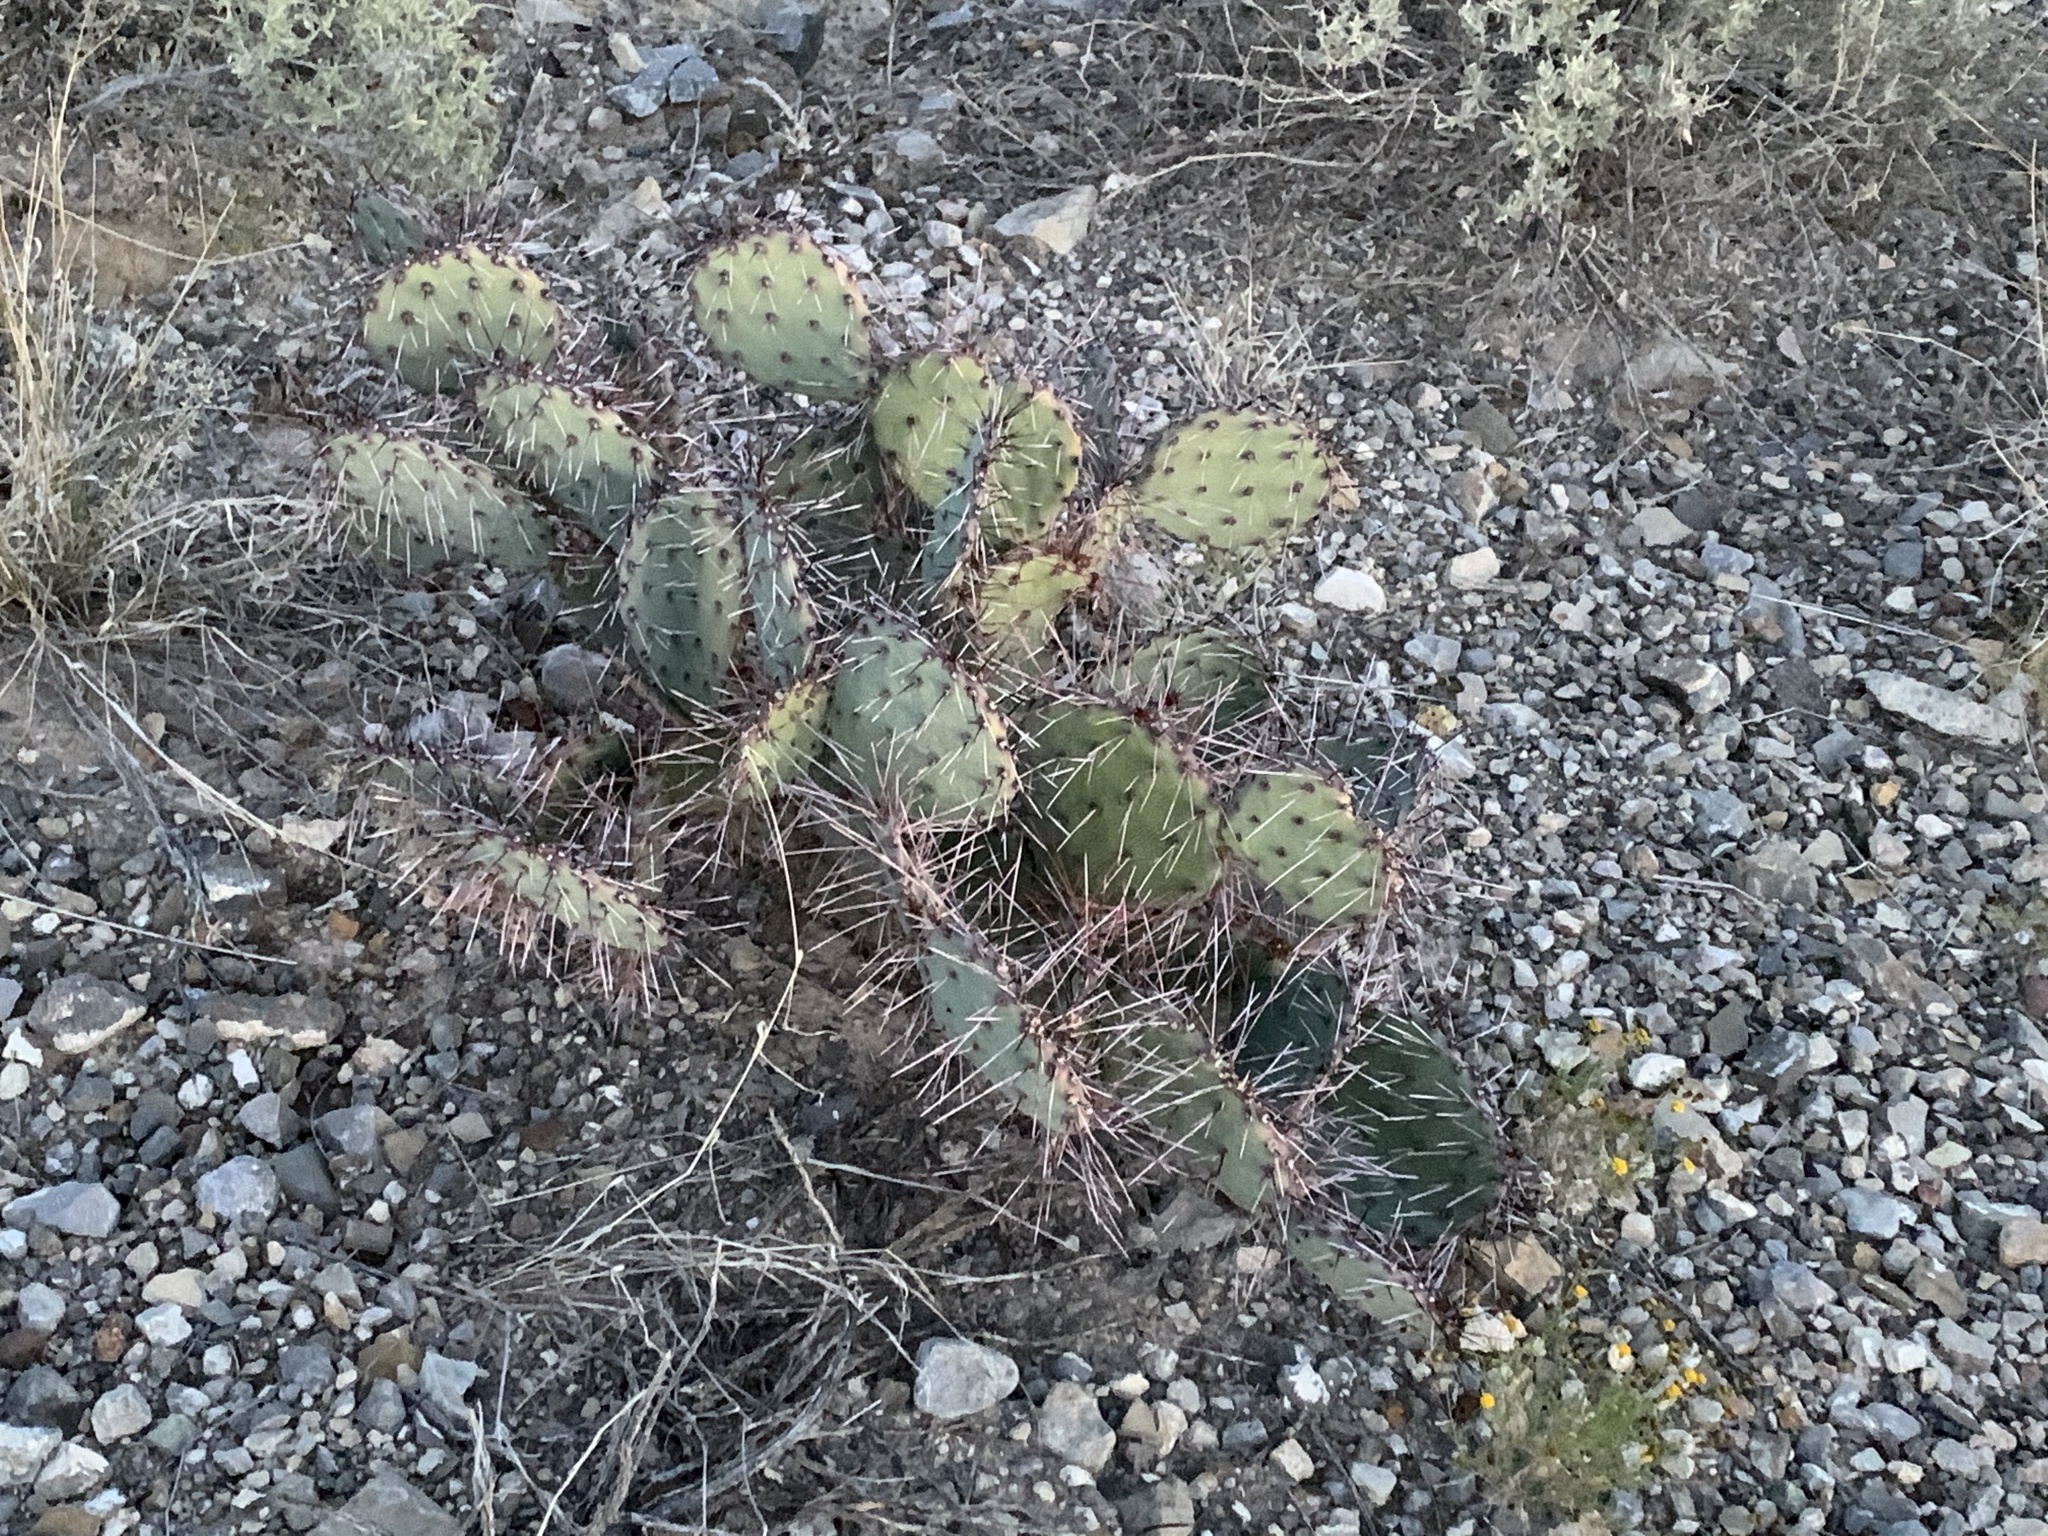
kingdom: Plantae
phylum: Tracheophyta
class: Magnoliopsida
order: Caryophyllales
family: Cactaceae
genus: Opuntia
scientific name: Opuntia phaeacantha
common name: New mexico prickly-pear
